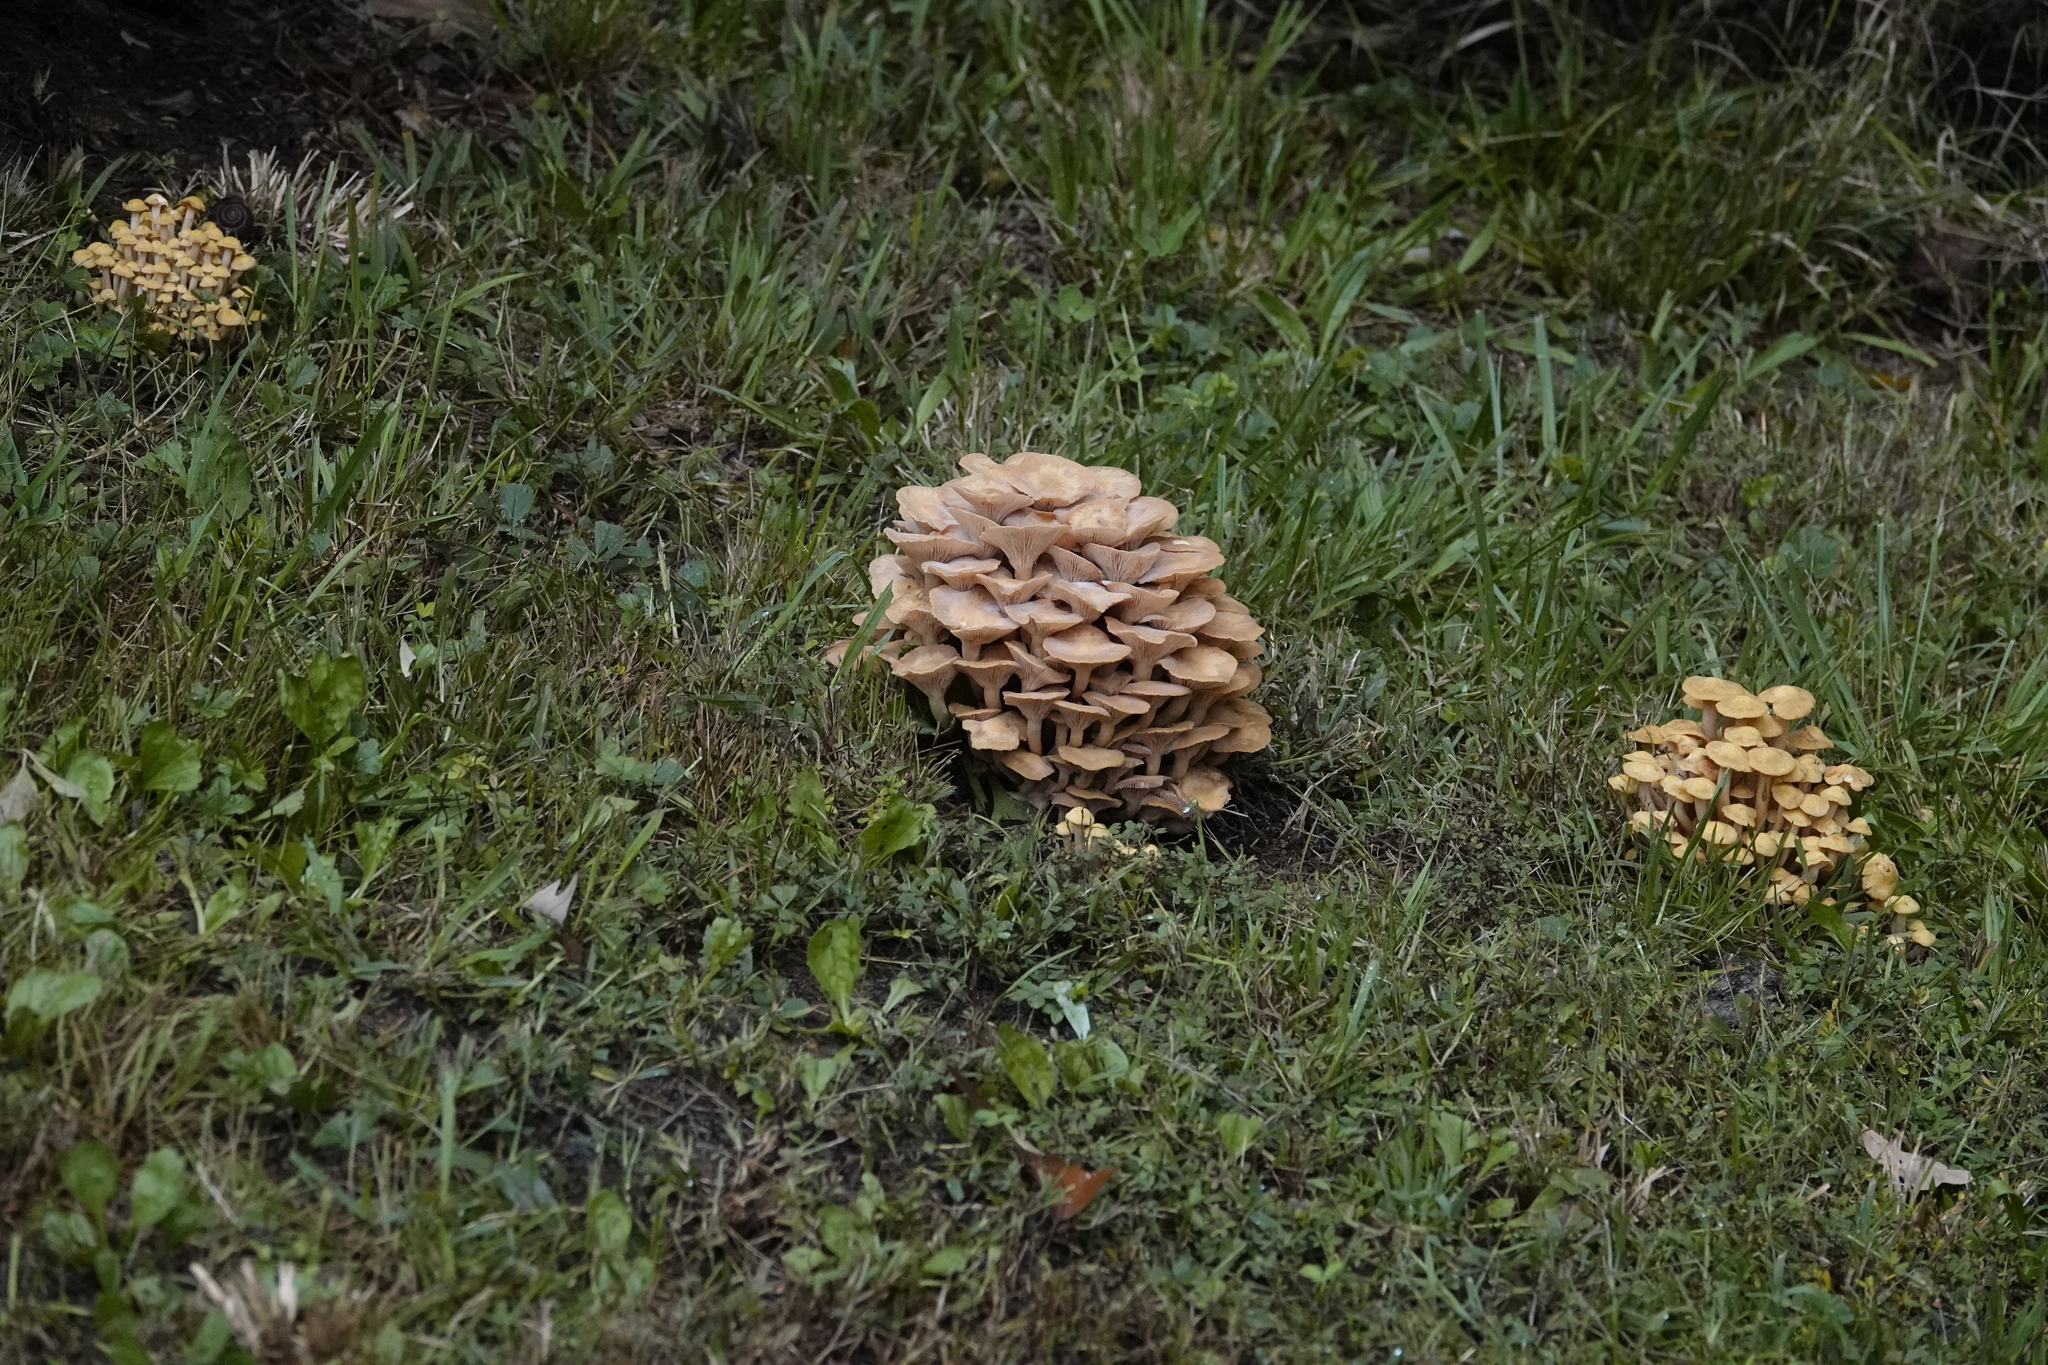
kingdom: Fungi
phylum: Basidiomycota
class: Agaricomycetes
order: Agaricales
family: Physalacriaceae
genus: Desarmillaria
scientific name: Desarmillaria caespitosa
